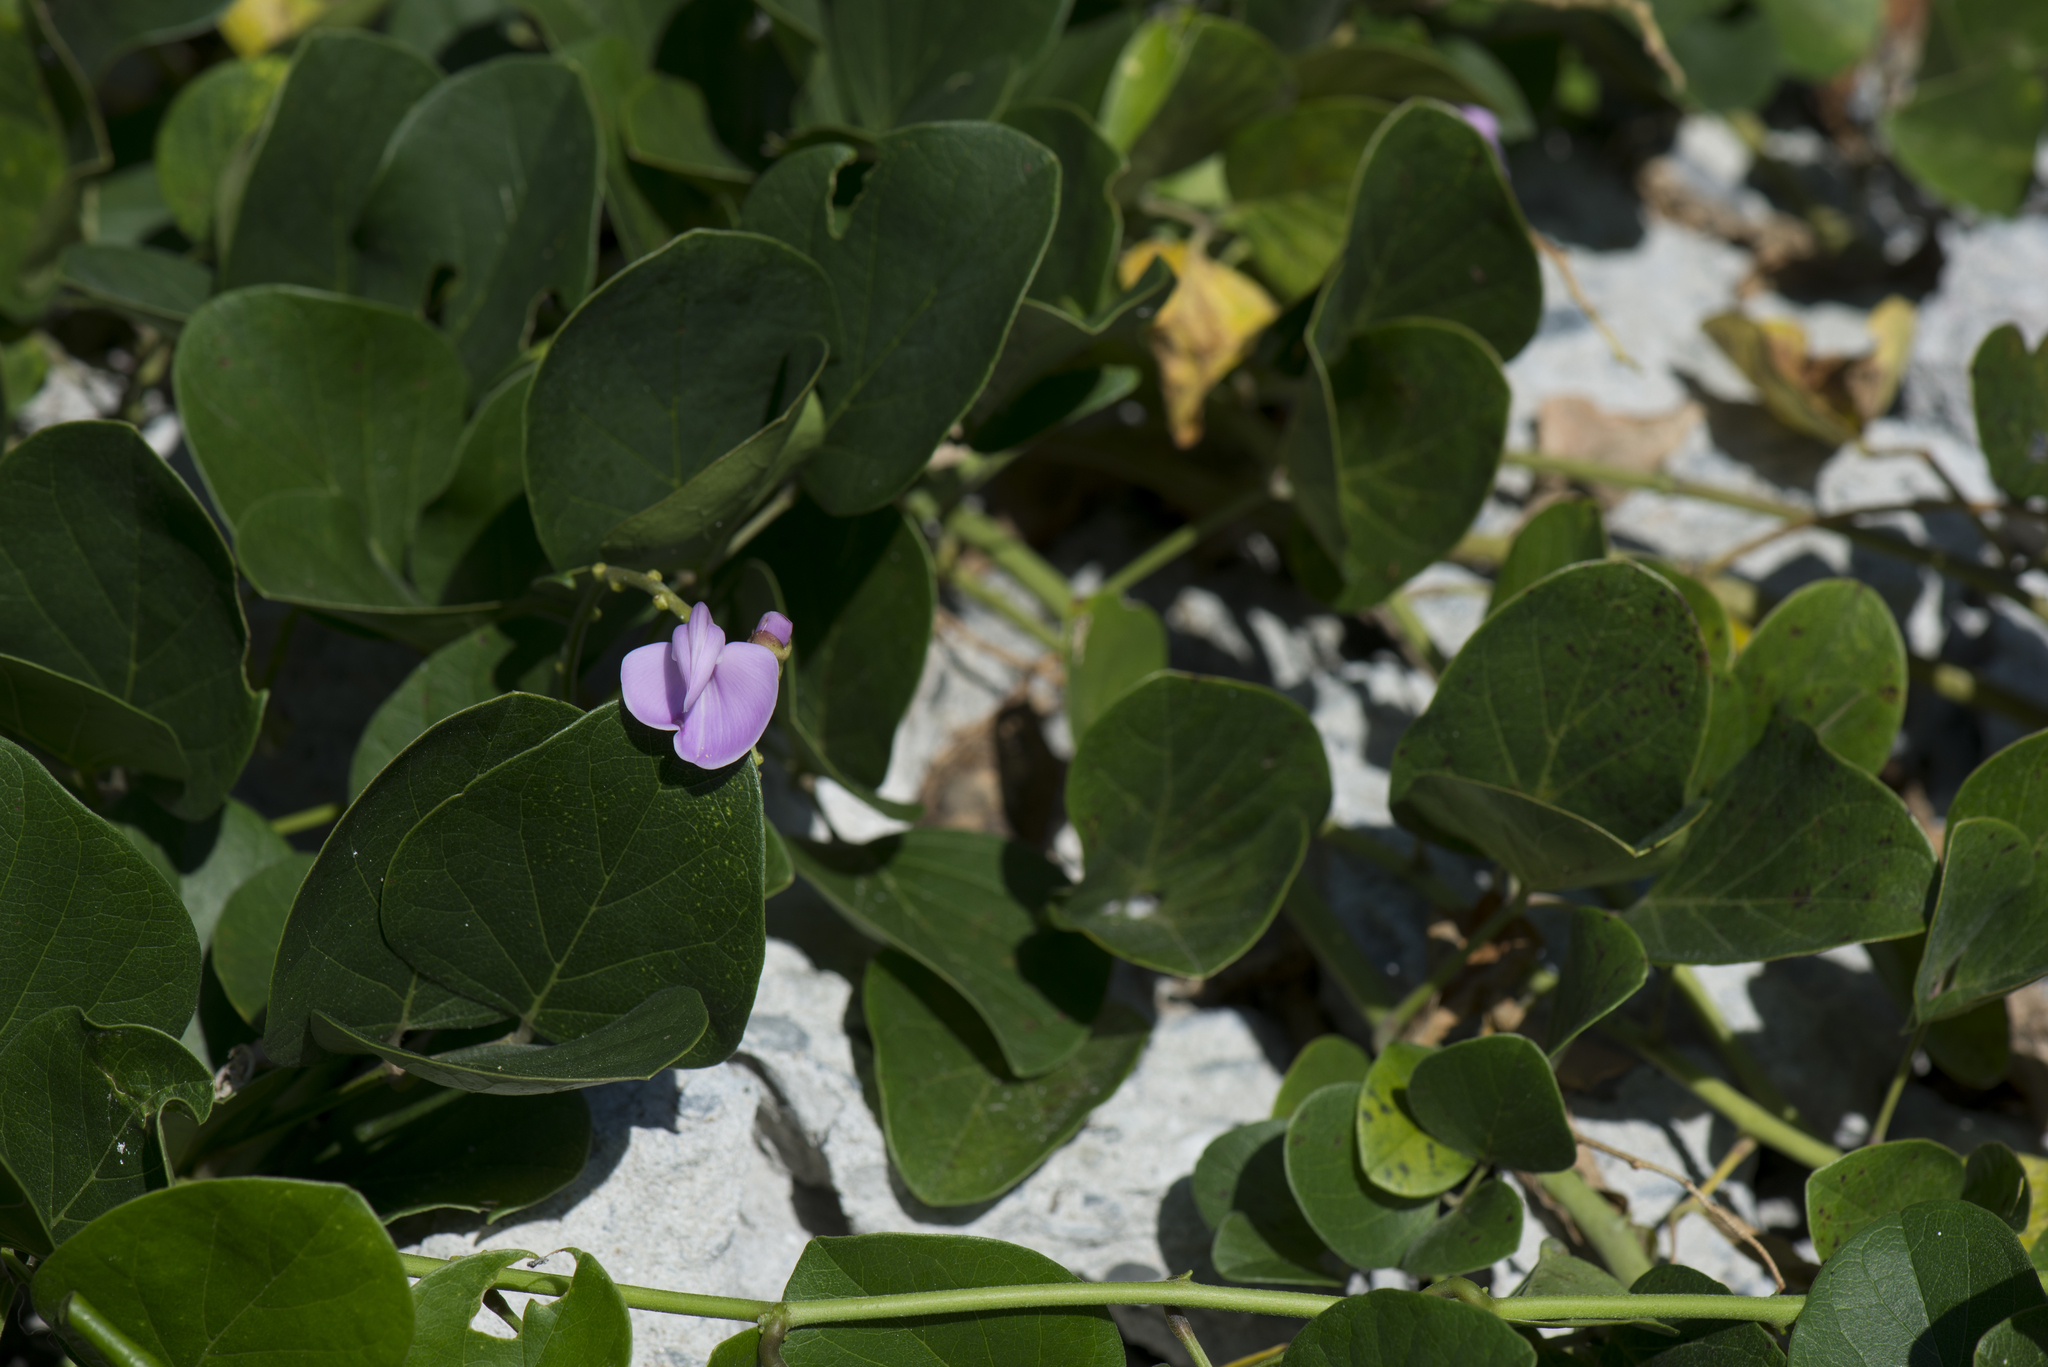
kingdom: Plantae
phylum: Tracheophyta
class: Magnoliopsida
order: Fabales
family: Fabaceae
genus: Canavalia
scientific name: Canavalia lineata
